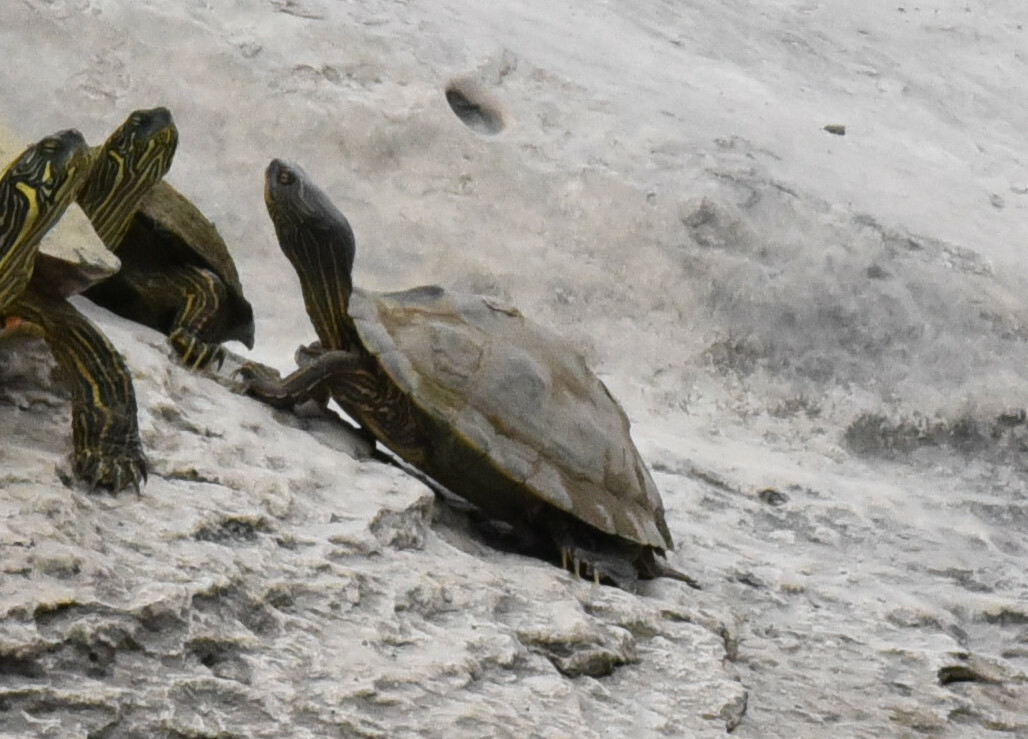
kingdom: Animalia
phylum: Chordata
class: Testudines
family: Emydidae
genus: Graptemys
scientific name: Graptemys versa
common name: Texas map turtle
